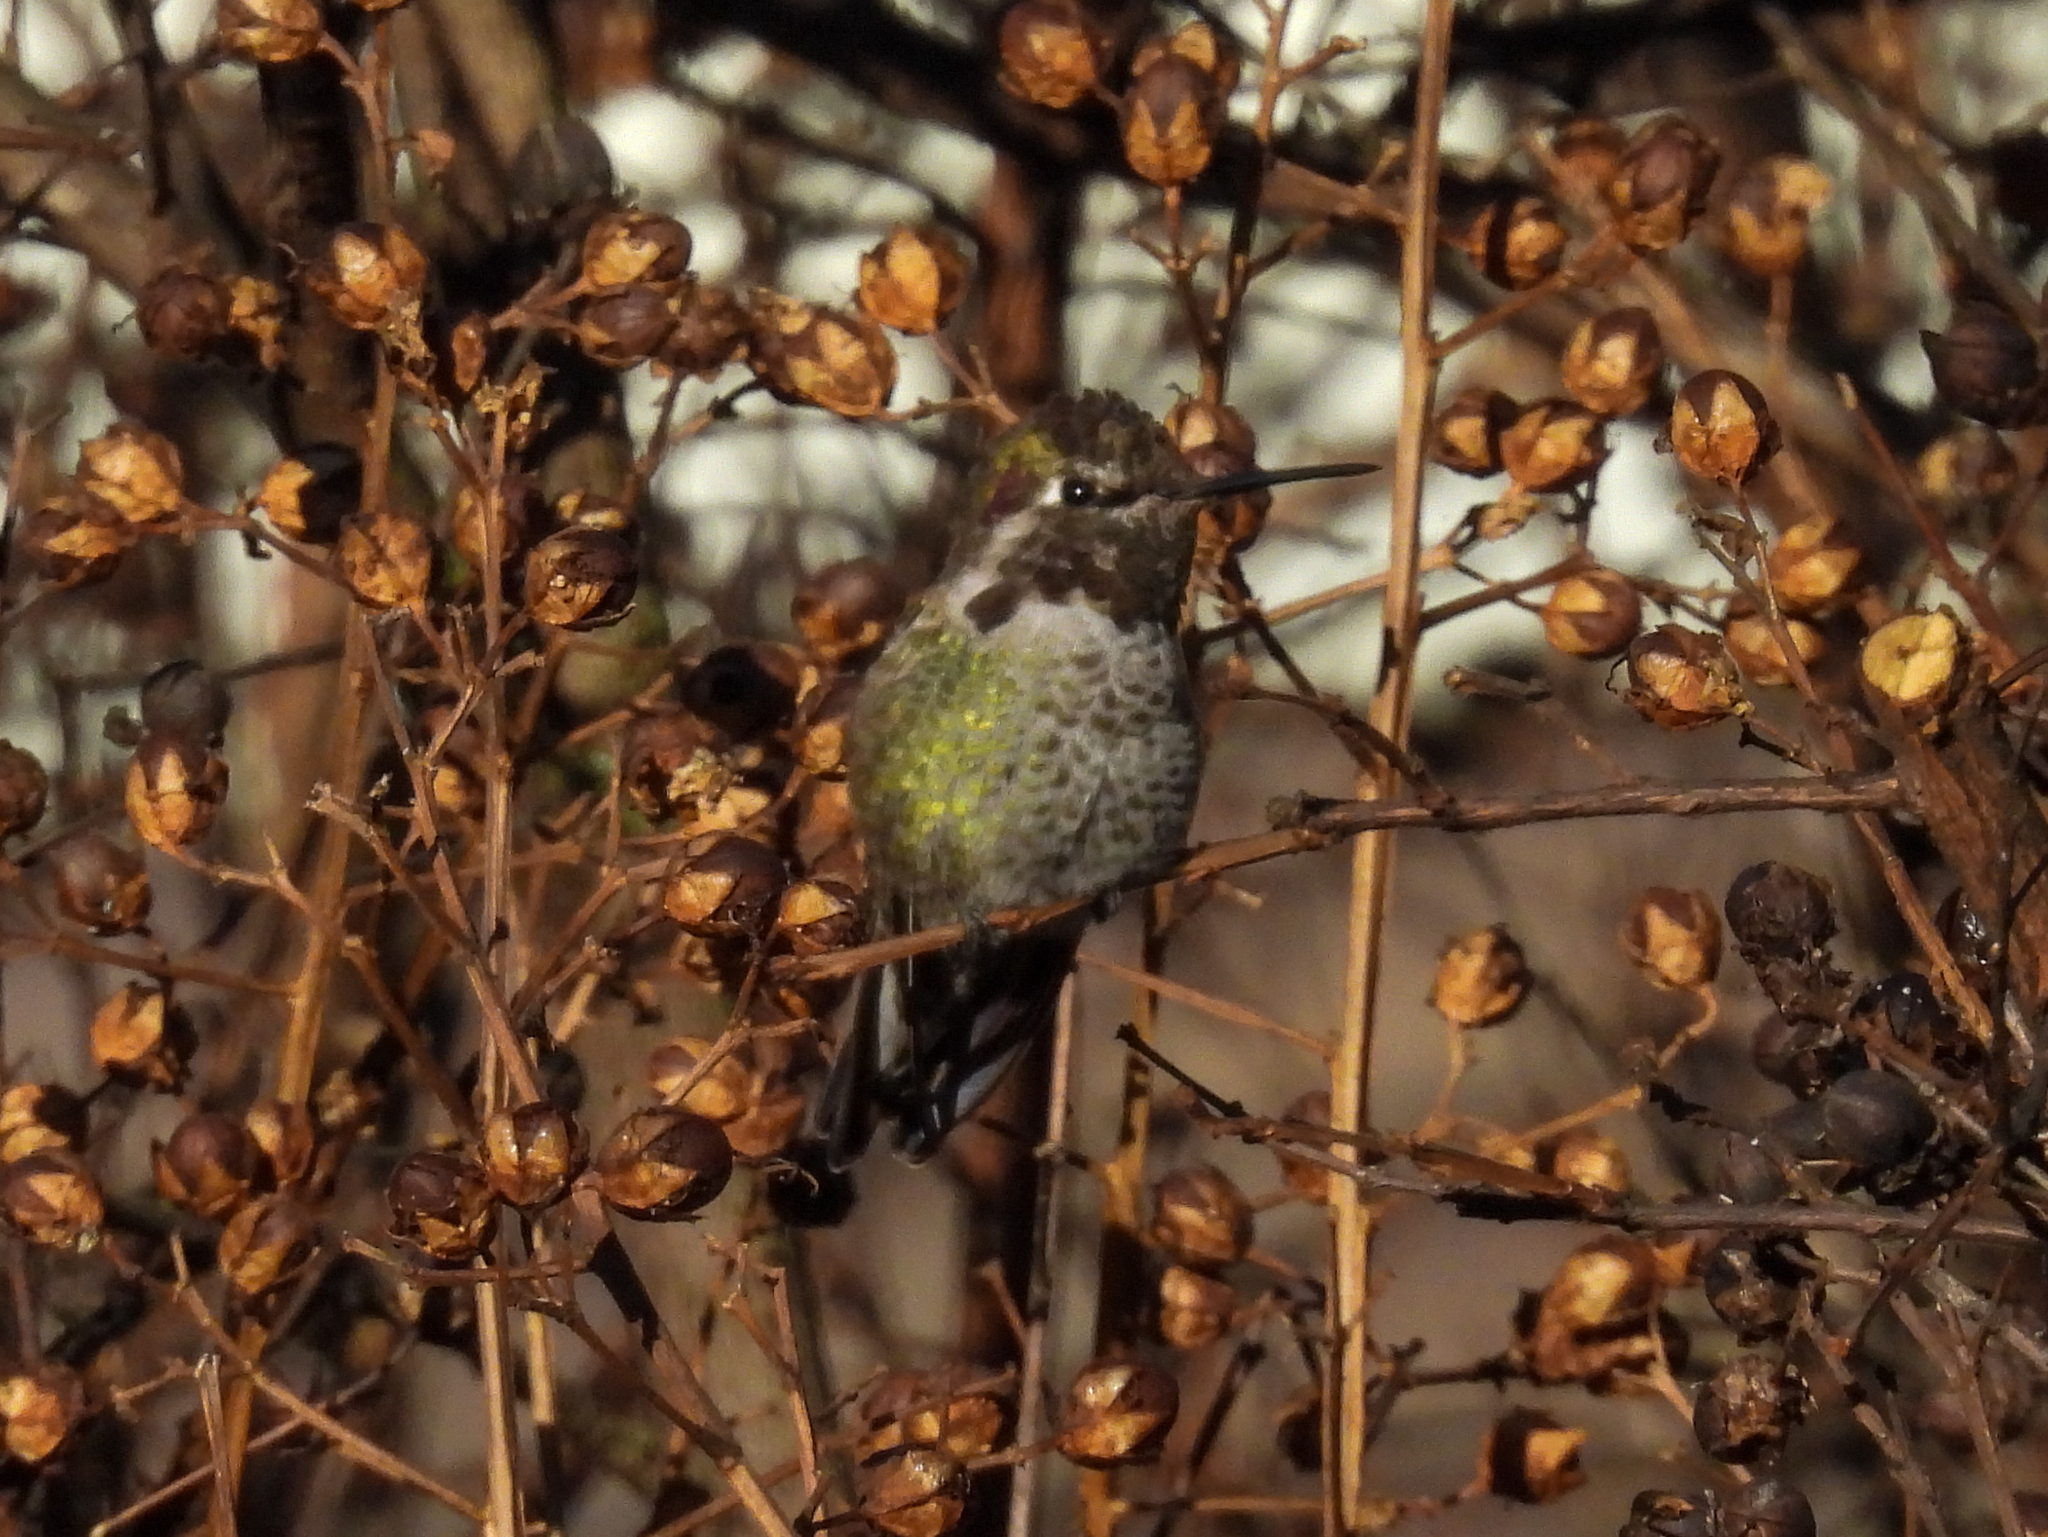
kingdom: Animalia
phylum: Chordata
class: Aves
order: Apodiformes
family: Trochilidae
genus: Calypte
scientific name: Calypte anna
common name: Anna's hummingbird
